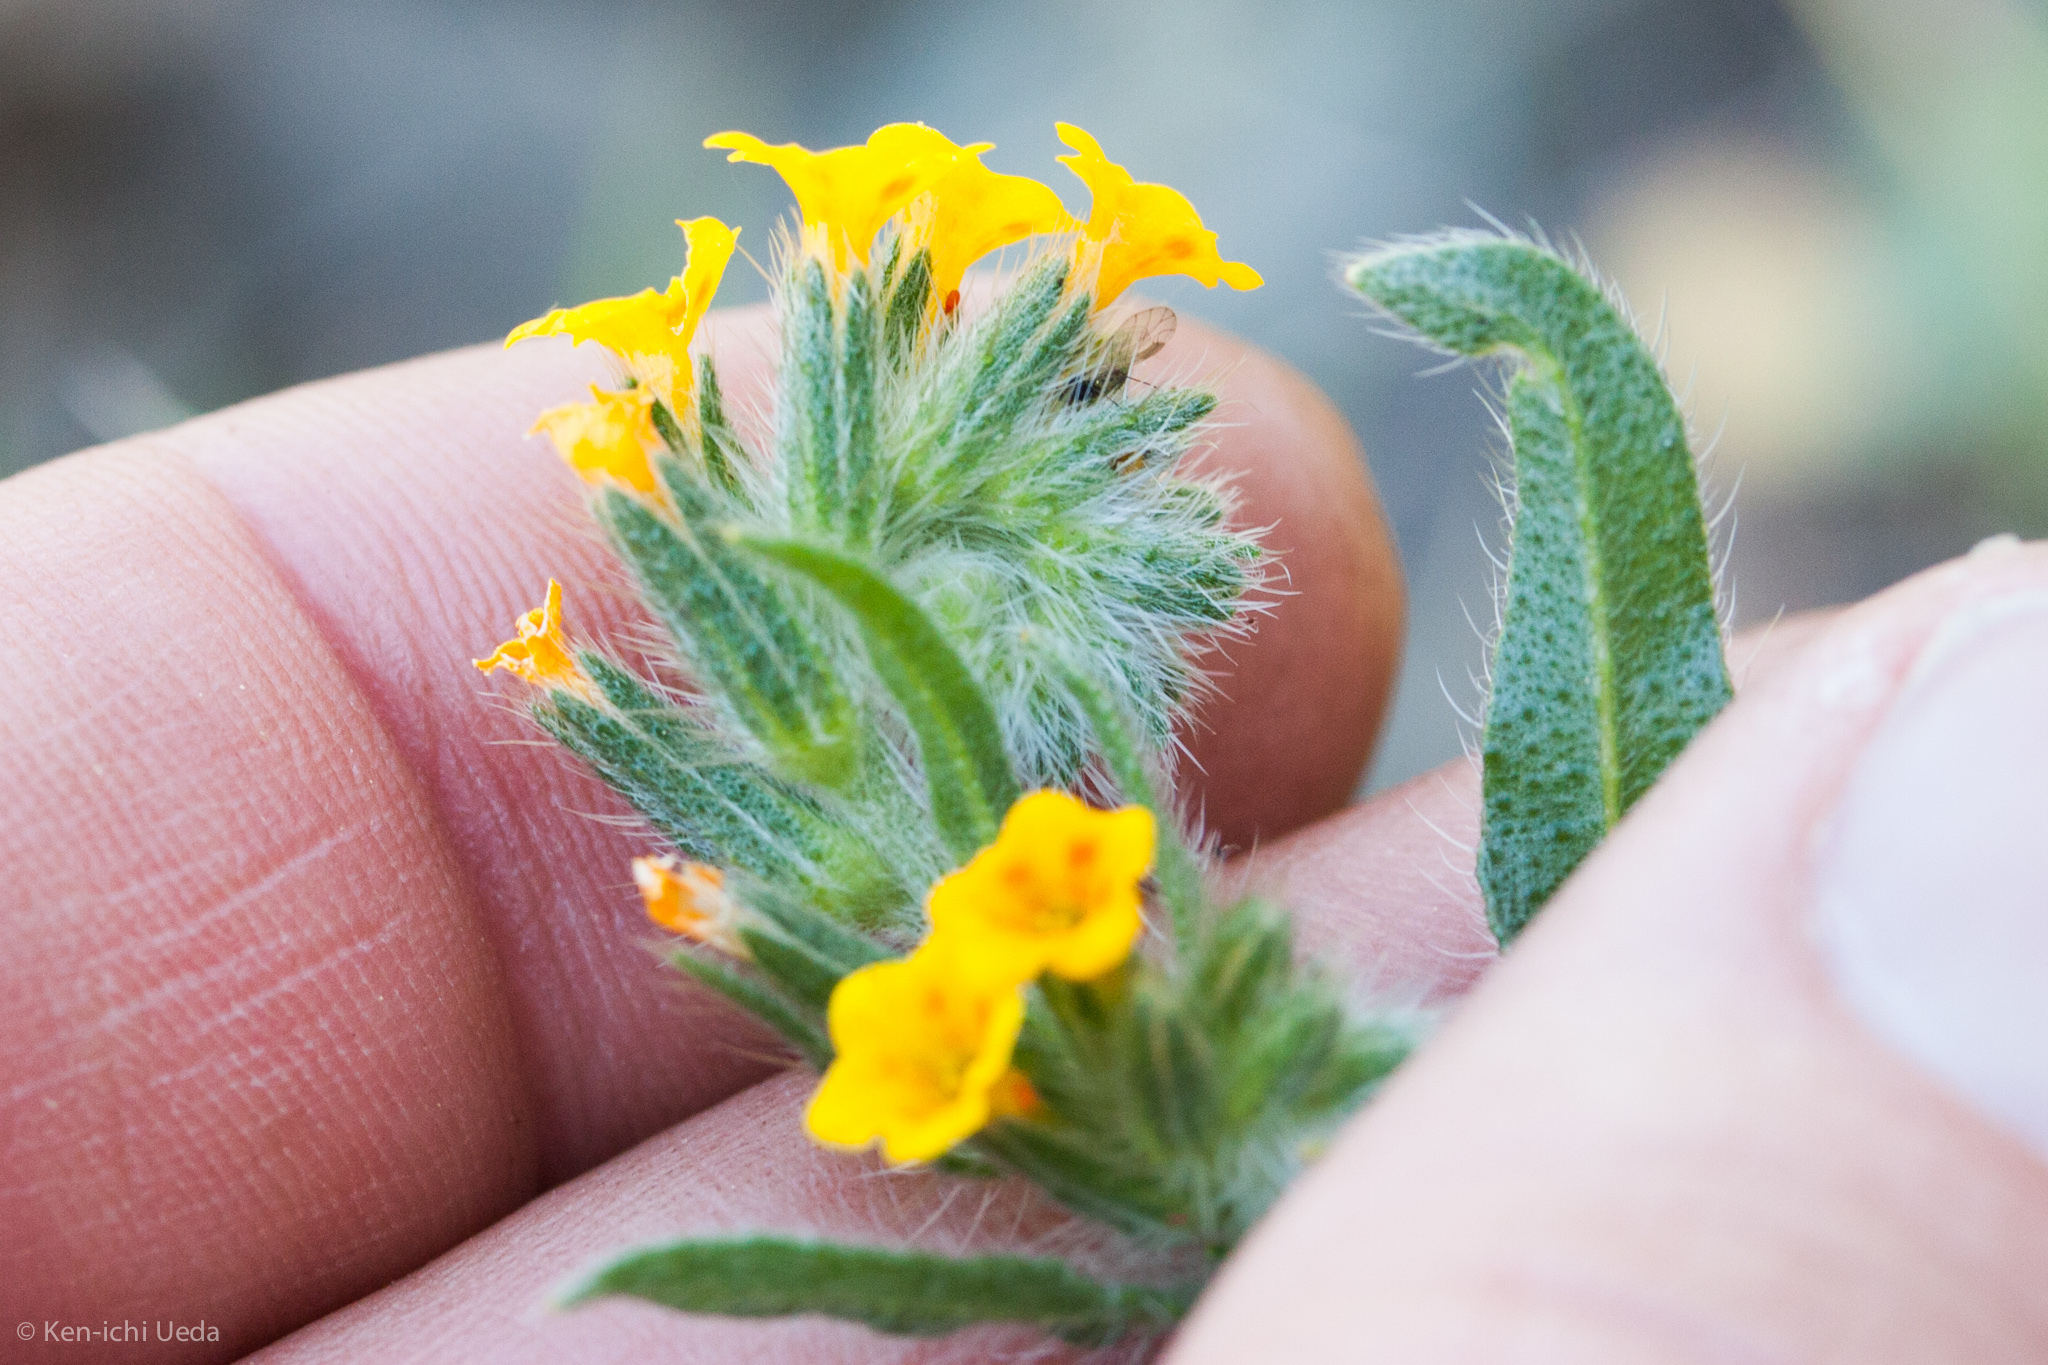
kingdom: Plantae
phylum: Tracheophyta
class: Magnoliopsida
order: Boraginales
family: Boraginaceae
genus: Amsinckia
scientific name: Amsinckia menziesii
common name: Menzies' fiddleneck
